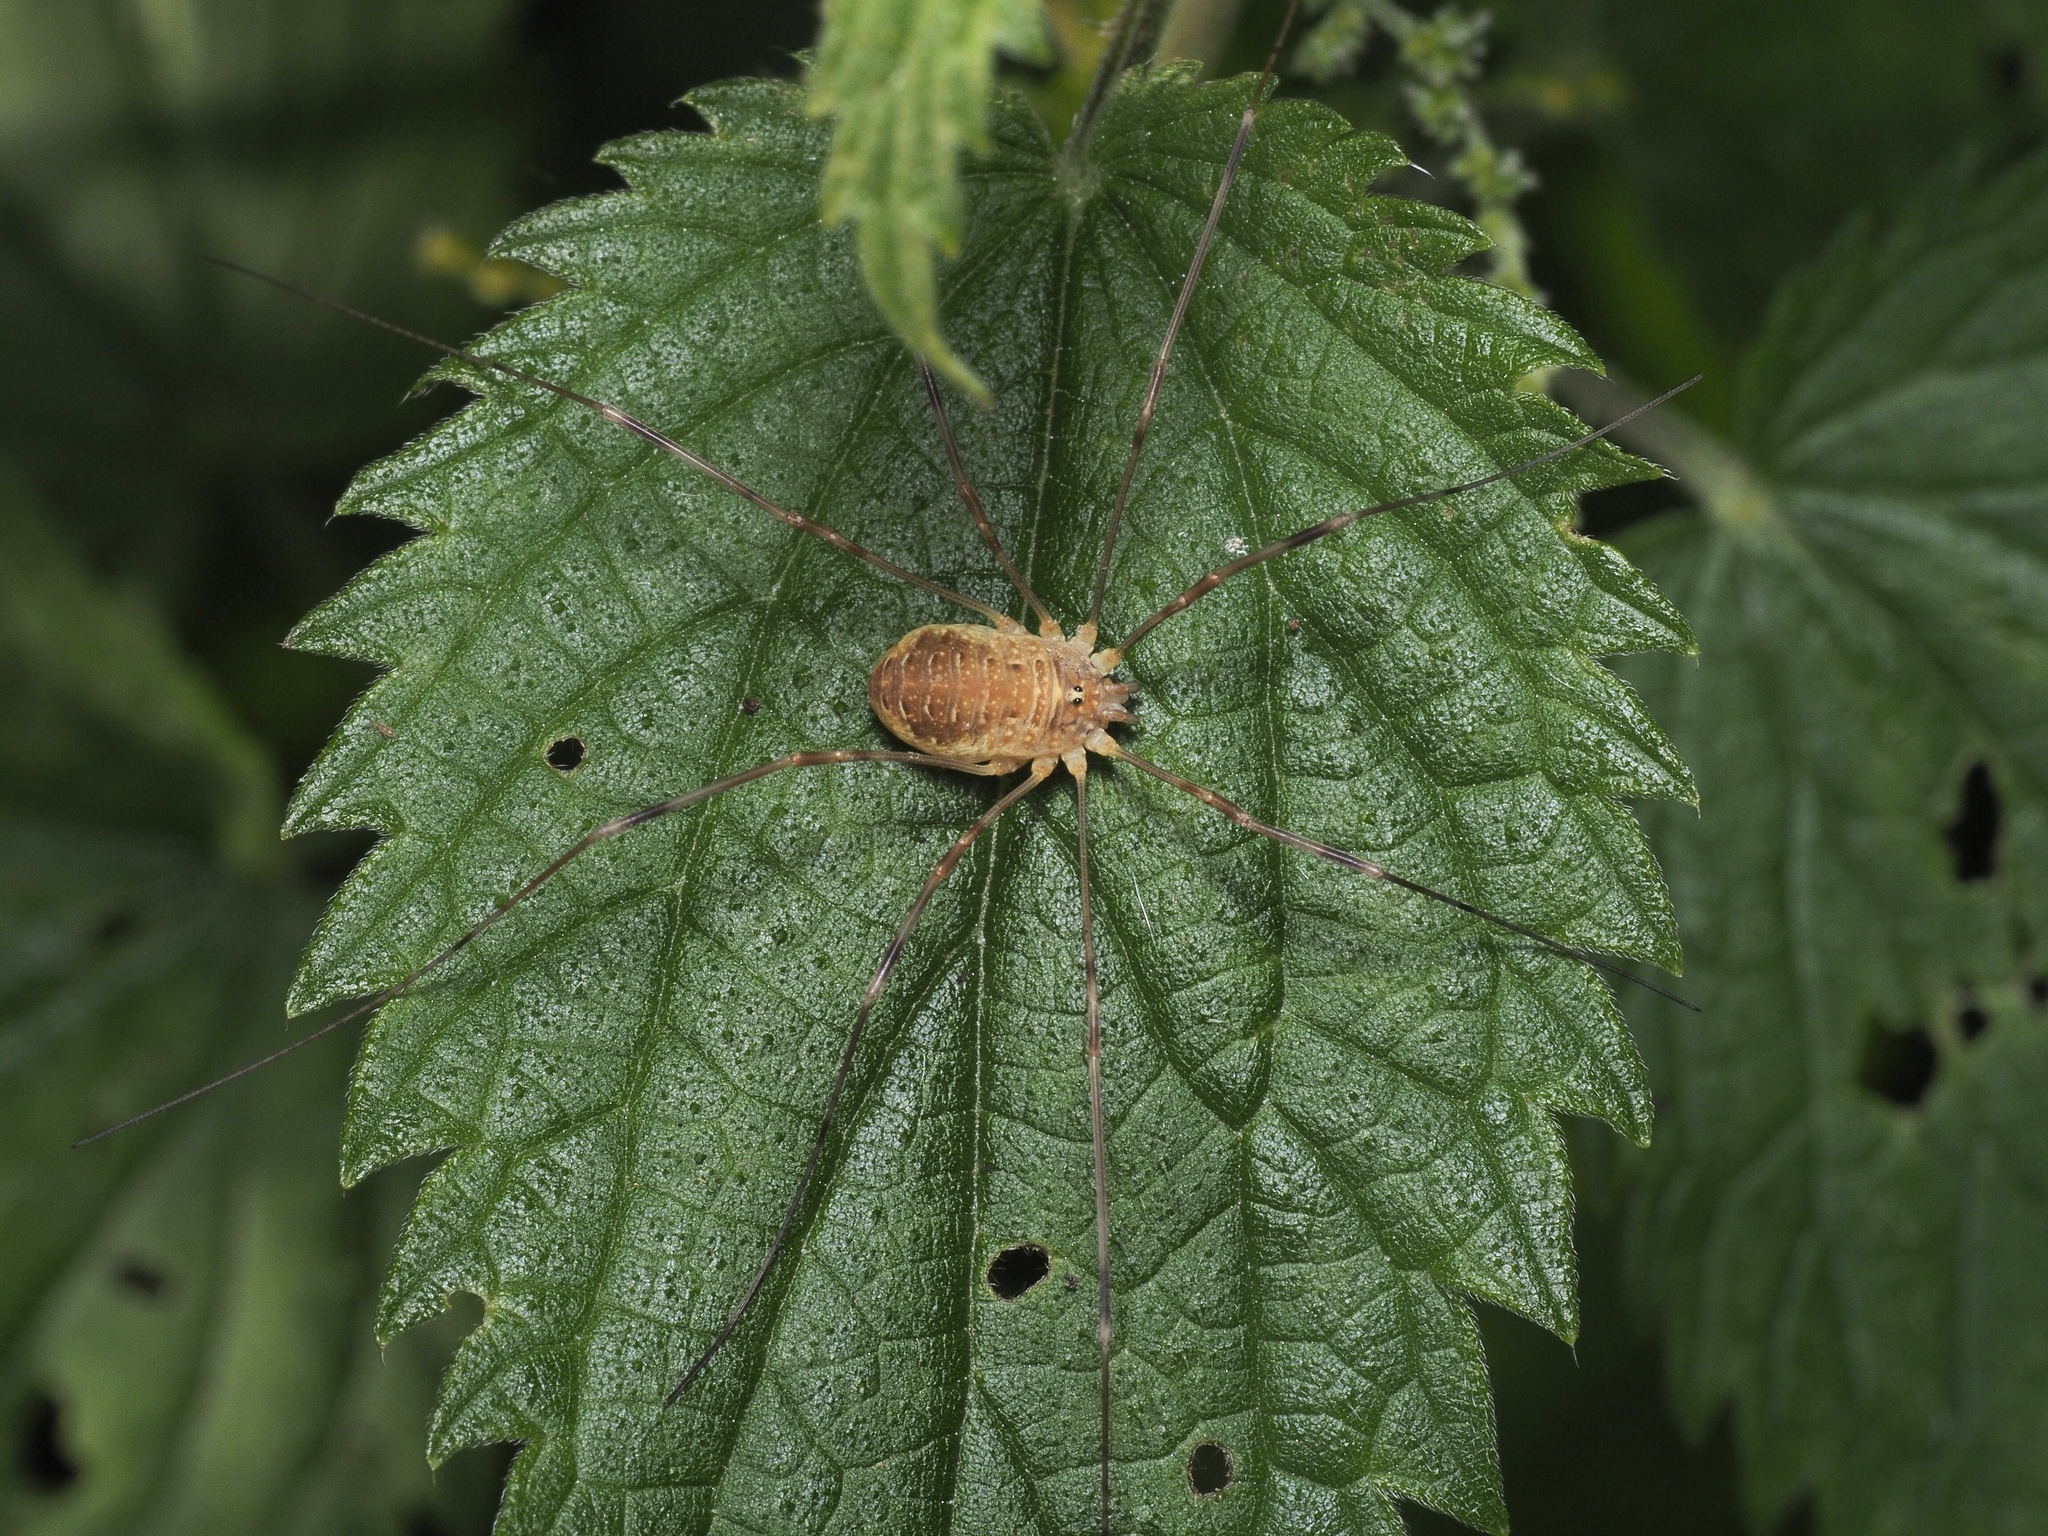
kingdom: Animalia
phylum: Arthropoda
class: Arachnida
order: Opiliones
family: Phalangiidae
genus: Opilio
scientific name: Opilio canestrinii
